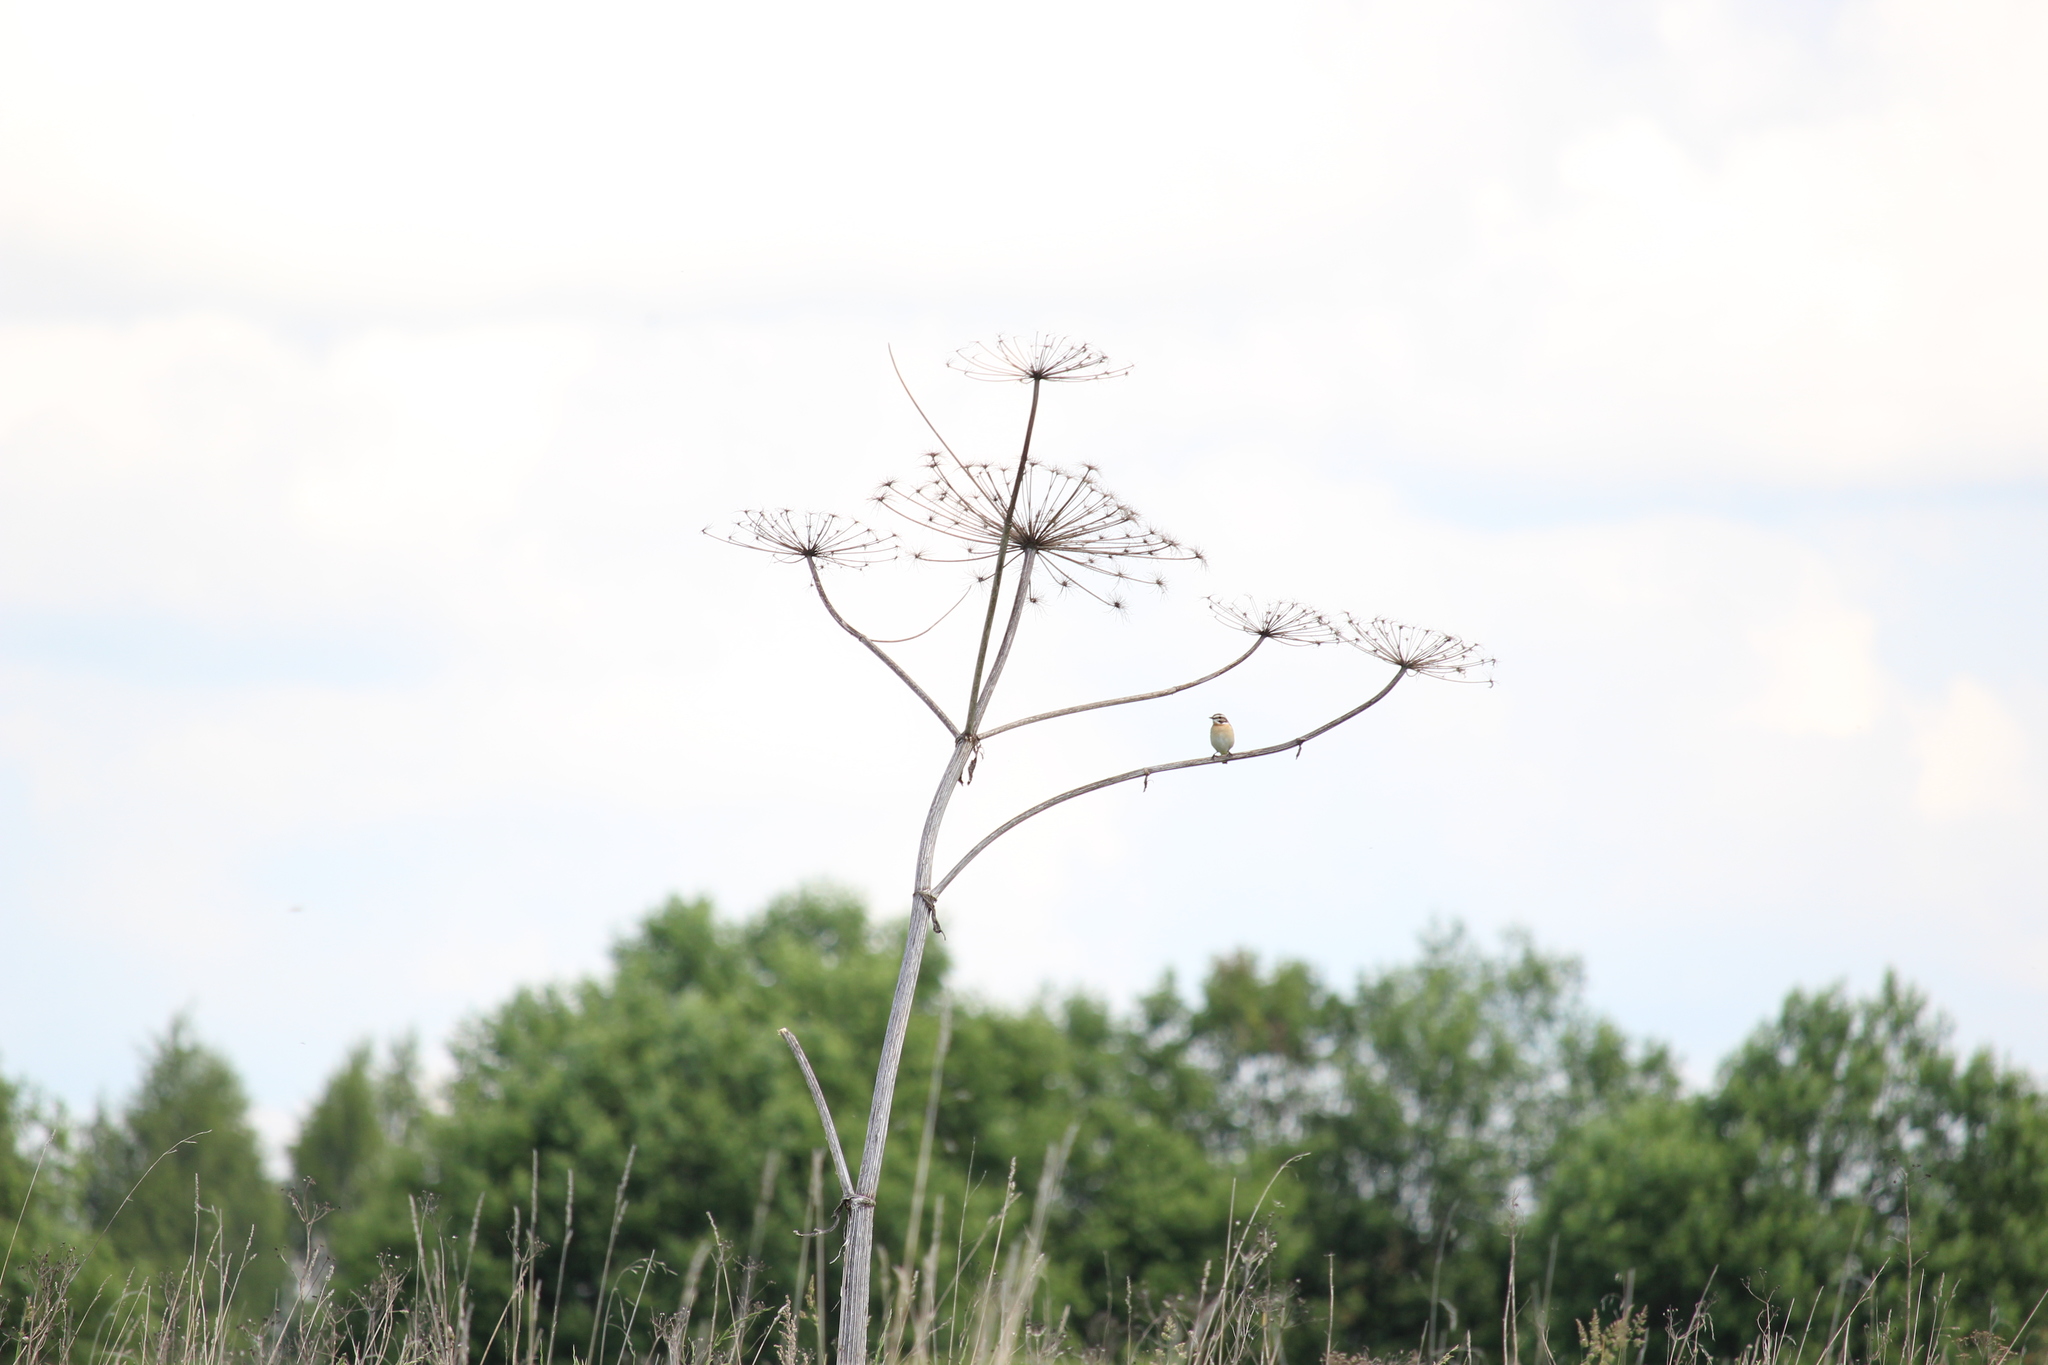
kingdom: Animalia
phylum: Chordata
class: Aves
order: Passeriformes
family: Muscicapidae
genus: Saxicola
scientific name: Saxicola rubetra
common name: Whinchat
